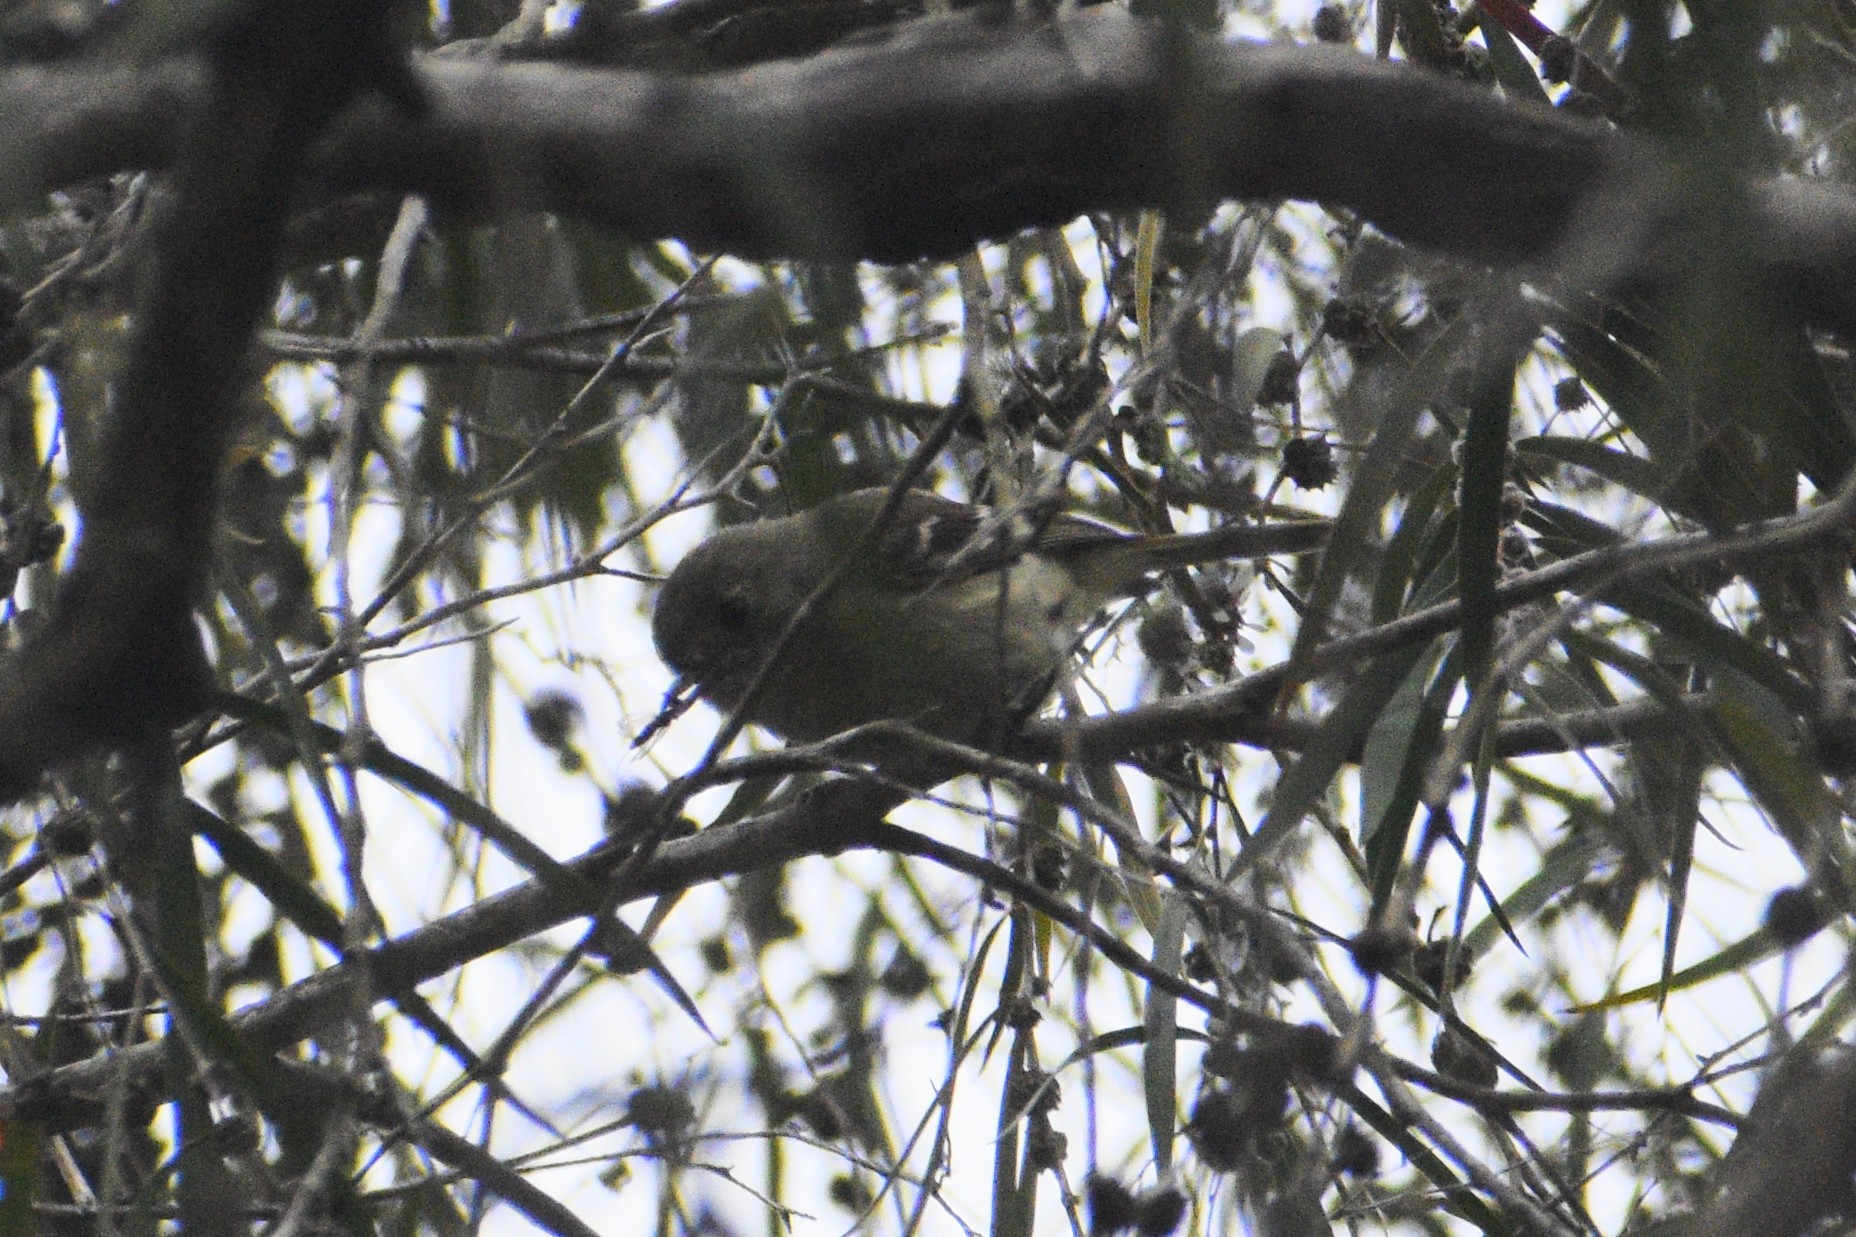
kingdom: Animalia
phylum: Chordata
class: Aves
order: Passeriformes
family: Vireonidae
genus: Vireo
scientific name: Vireo huttoni
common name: Hutton's vireo
